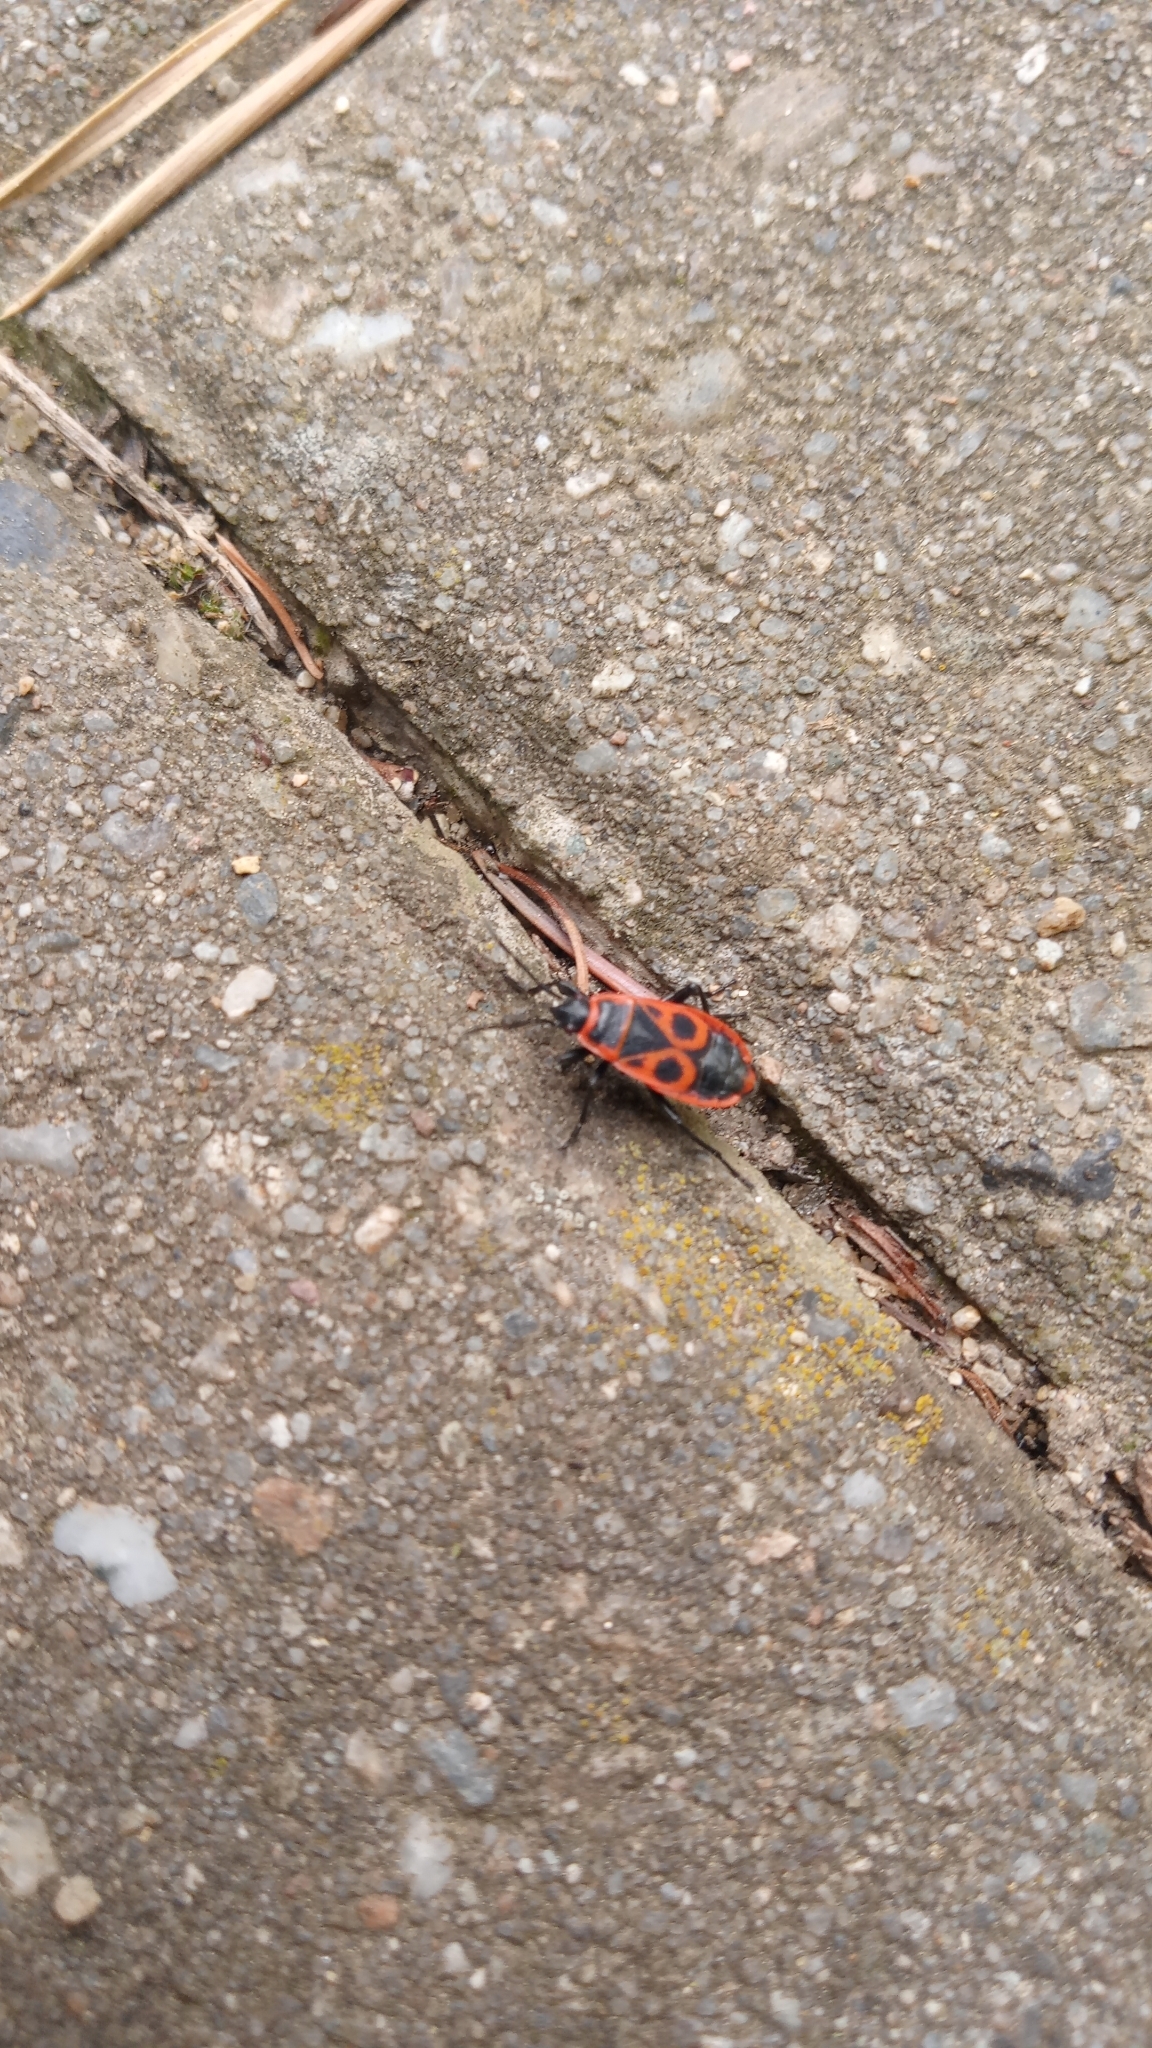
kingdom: Animalia
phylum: Arthropoda
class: Insecta
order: Hemiptera
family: Pyrrhocoridae
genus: Pyrrhocoris
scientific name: Pyrrhocoris apterus
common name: Firebug
